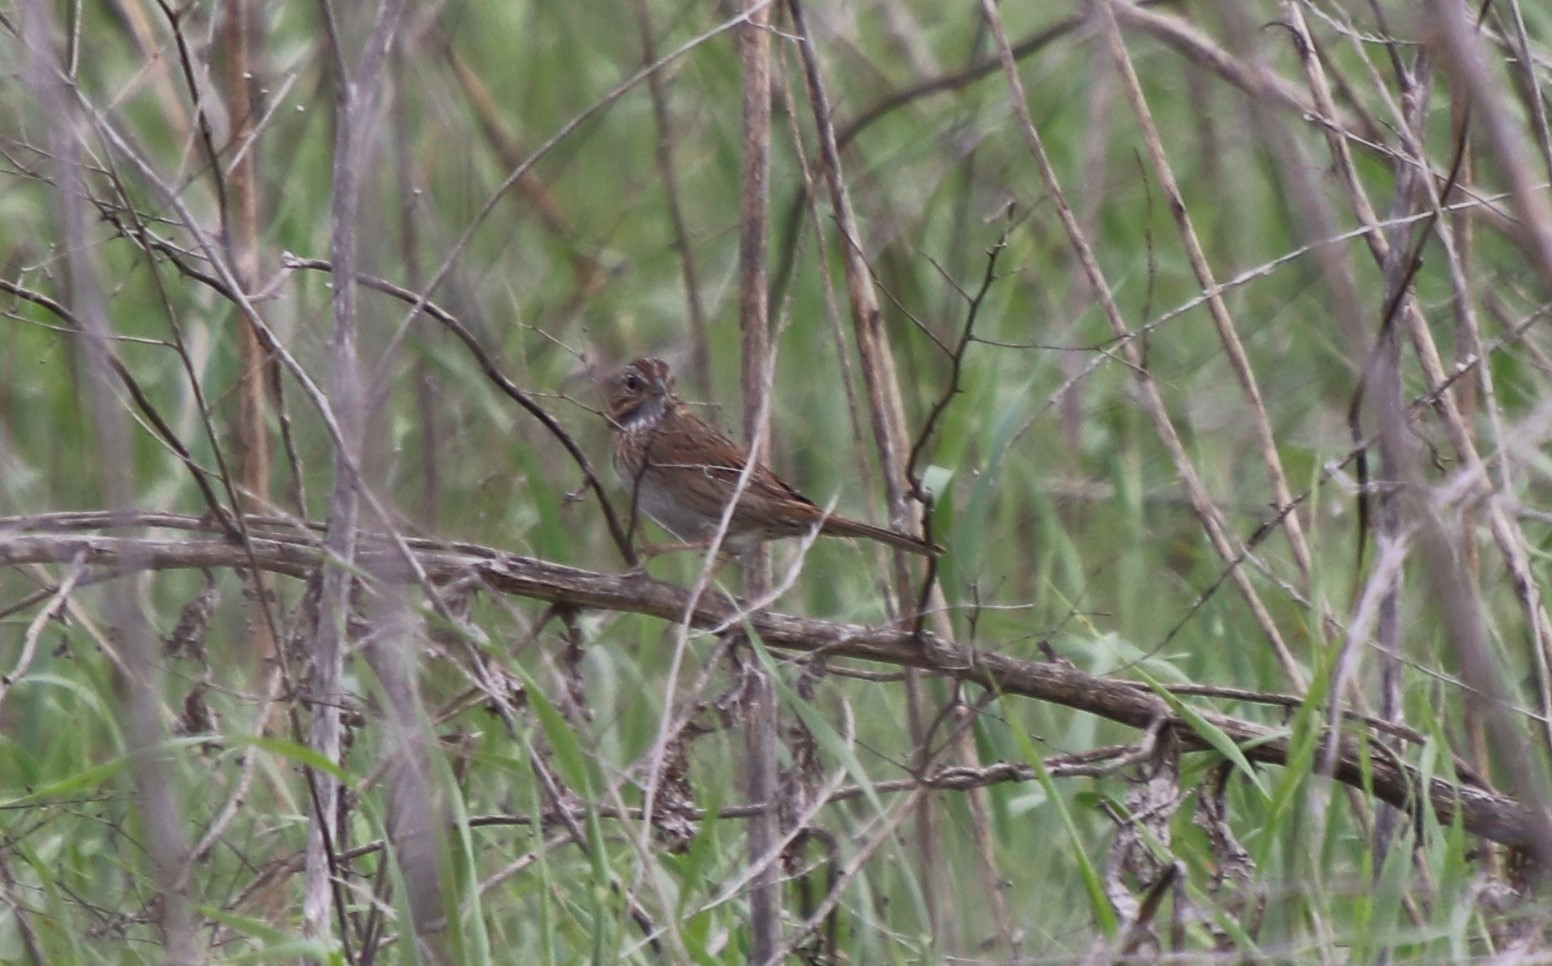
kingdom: Animalia
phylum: Chordata
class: Aves
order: Passeriformes
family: Passerellidae
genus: Melospiza
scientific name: Melospiza lincolnii
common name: Lincoln's sparrow
